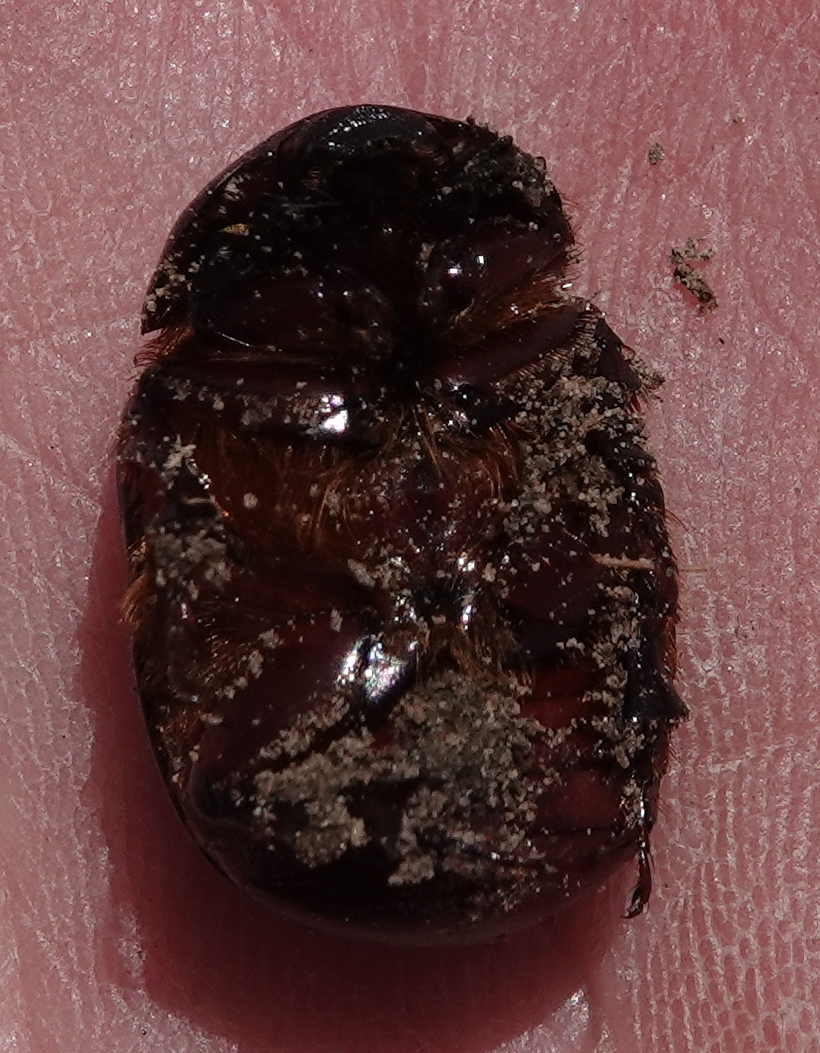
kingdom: Animalia
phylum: Arthropoda
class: Insecta
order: Coleoptera
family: Scarabaeidae
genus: Ligyrus
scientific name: Ligyrus gibbosus
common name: Carrot beetle
